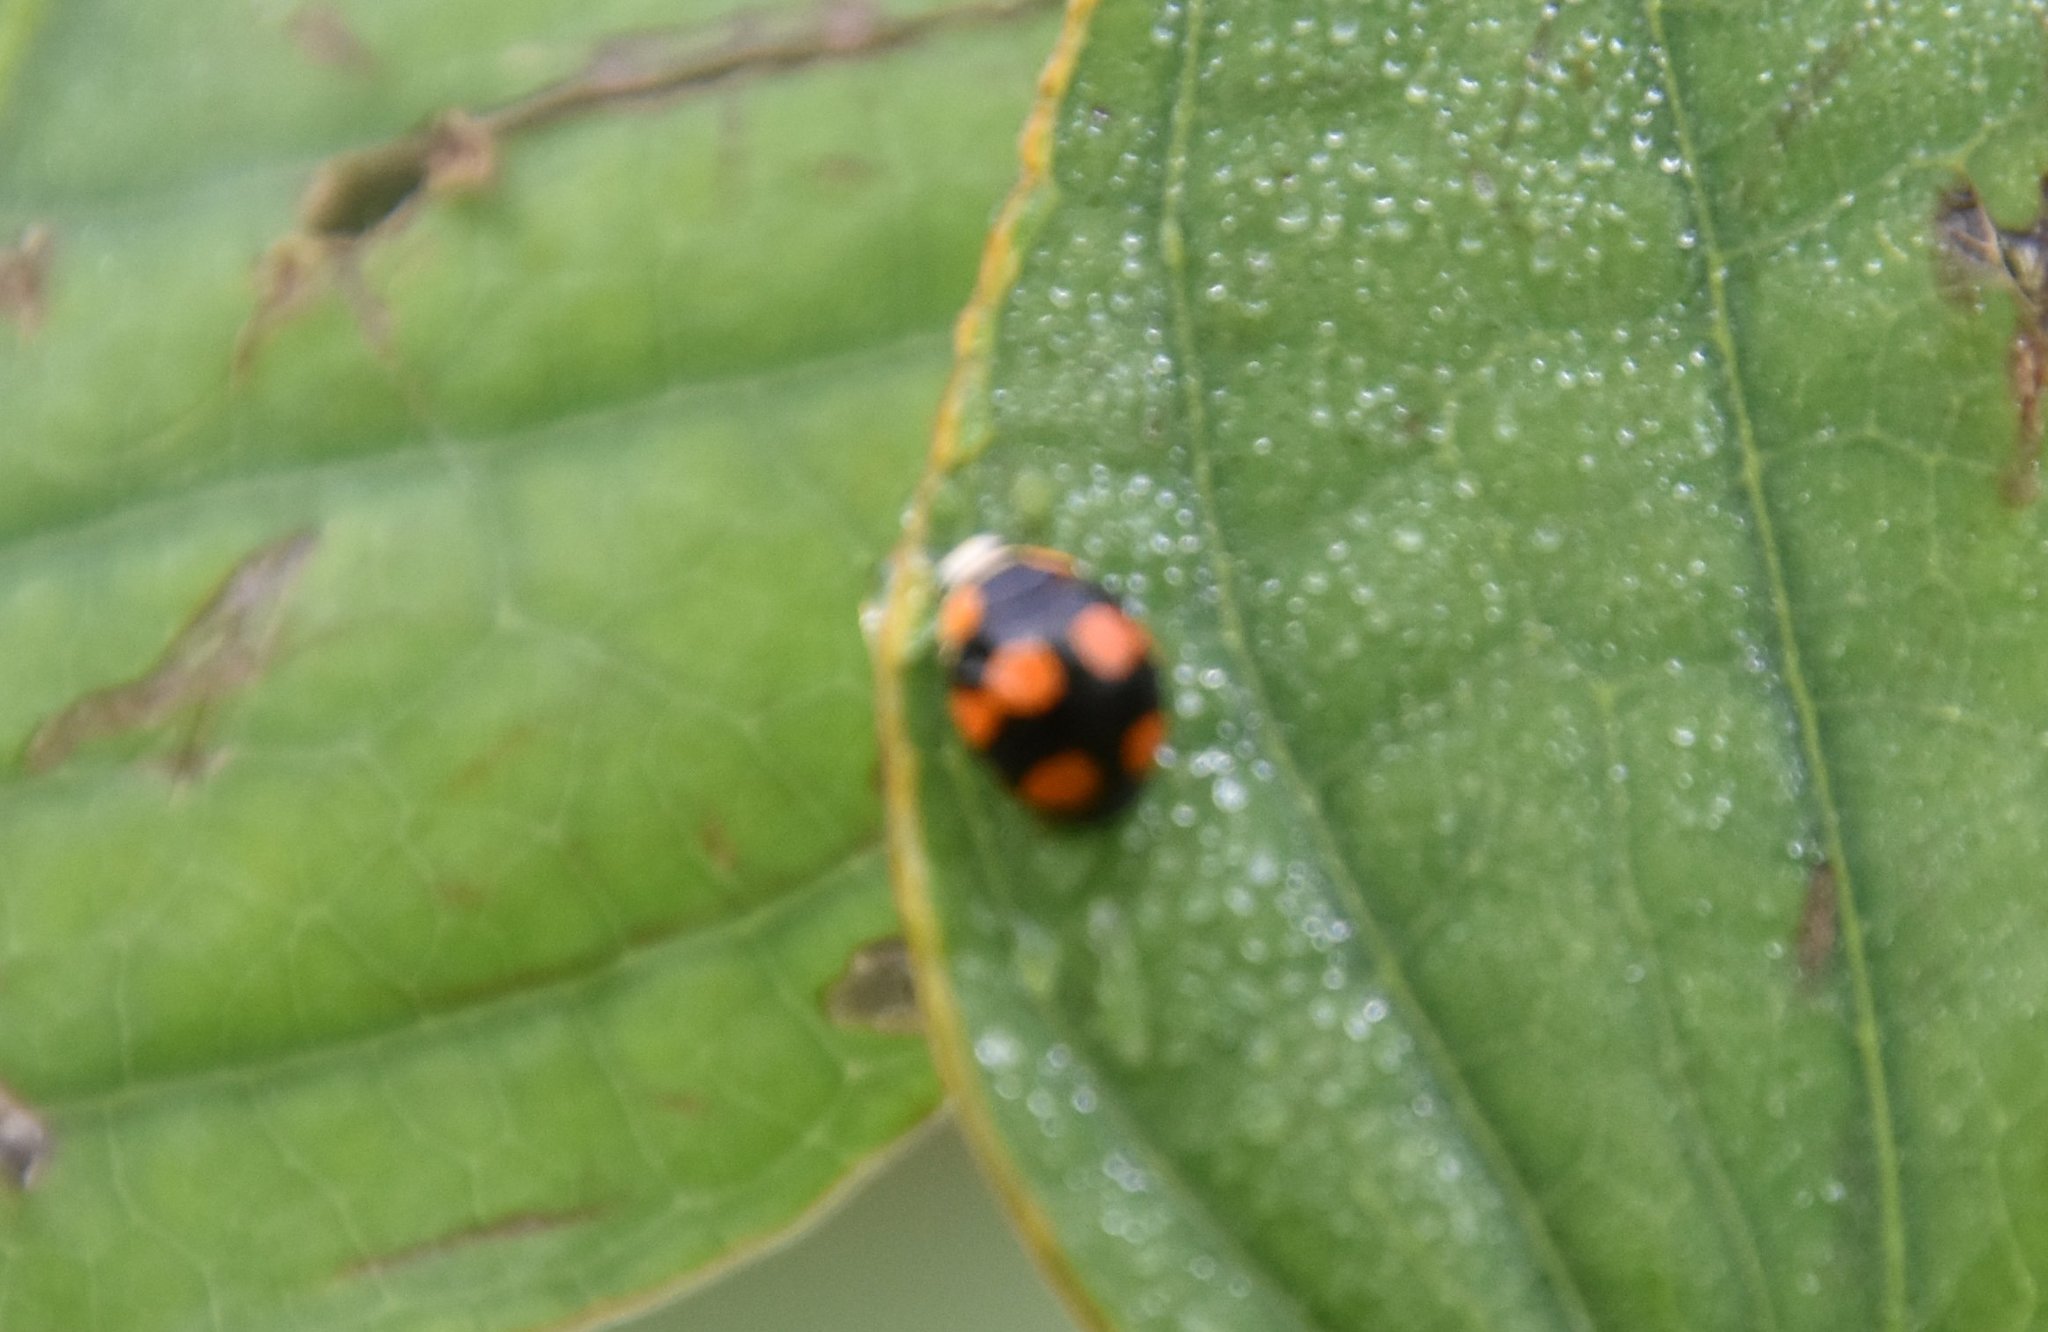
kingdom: Animalia
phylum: Arthropoda
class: Insecta
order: Coleoptera
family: Coccinellidae
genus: Brachiacantha
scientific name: Brachiacantha decora
